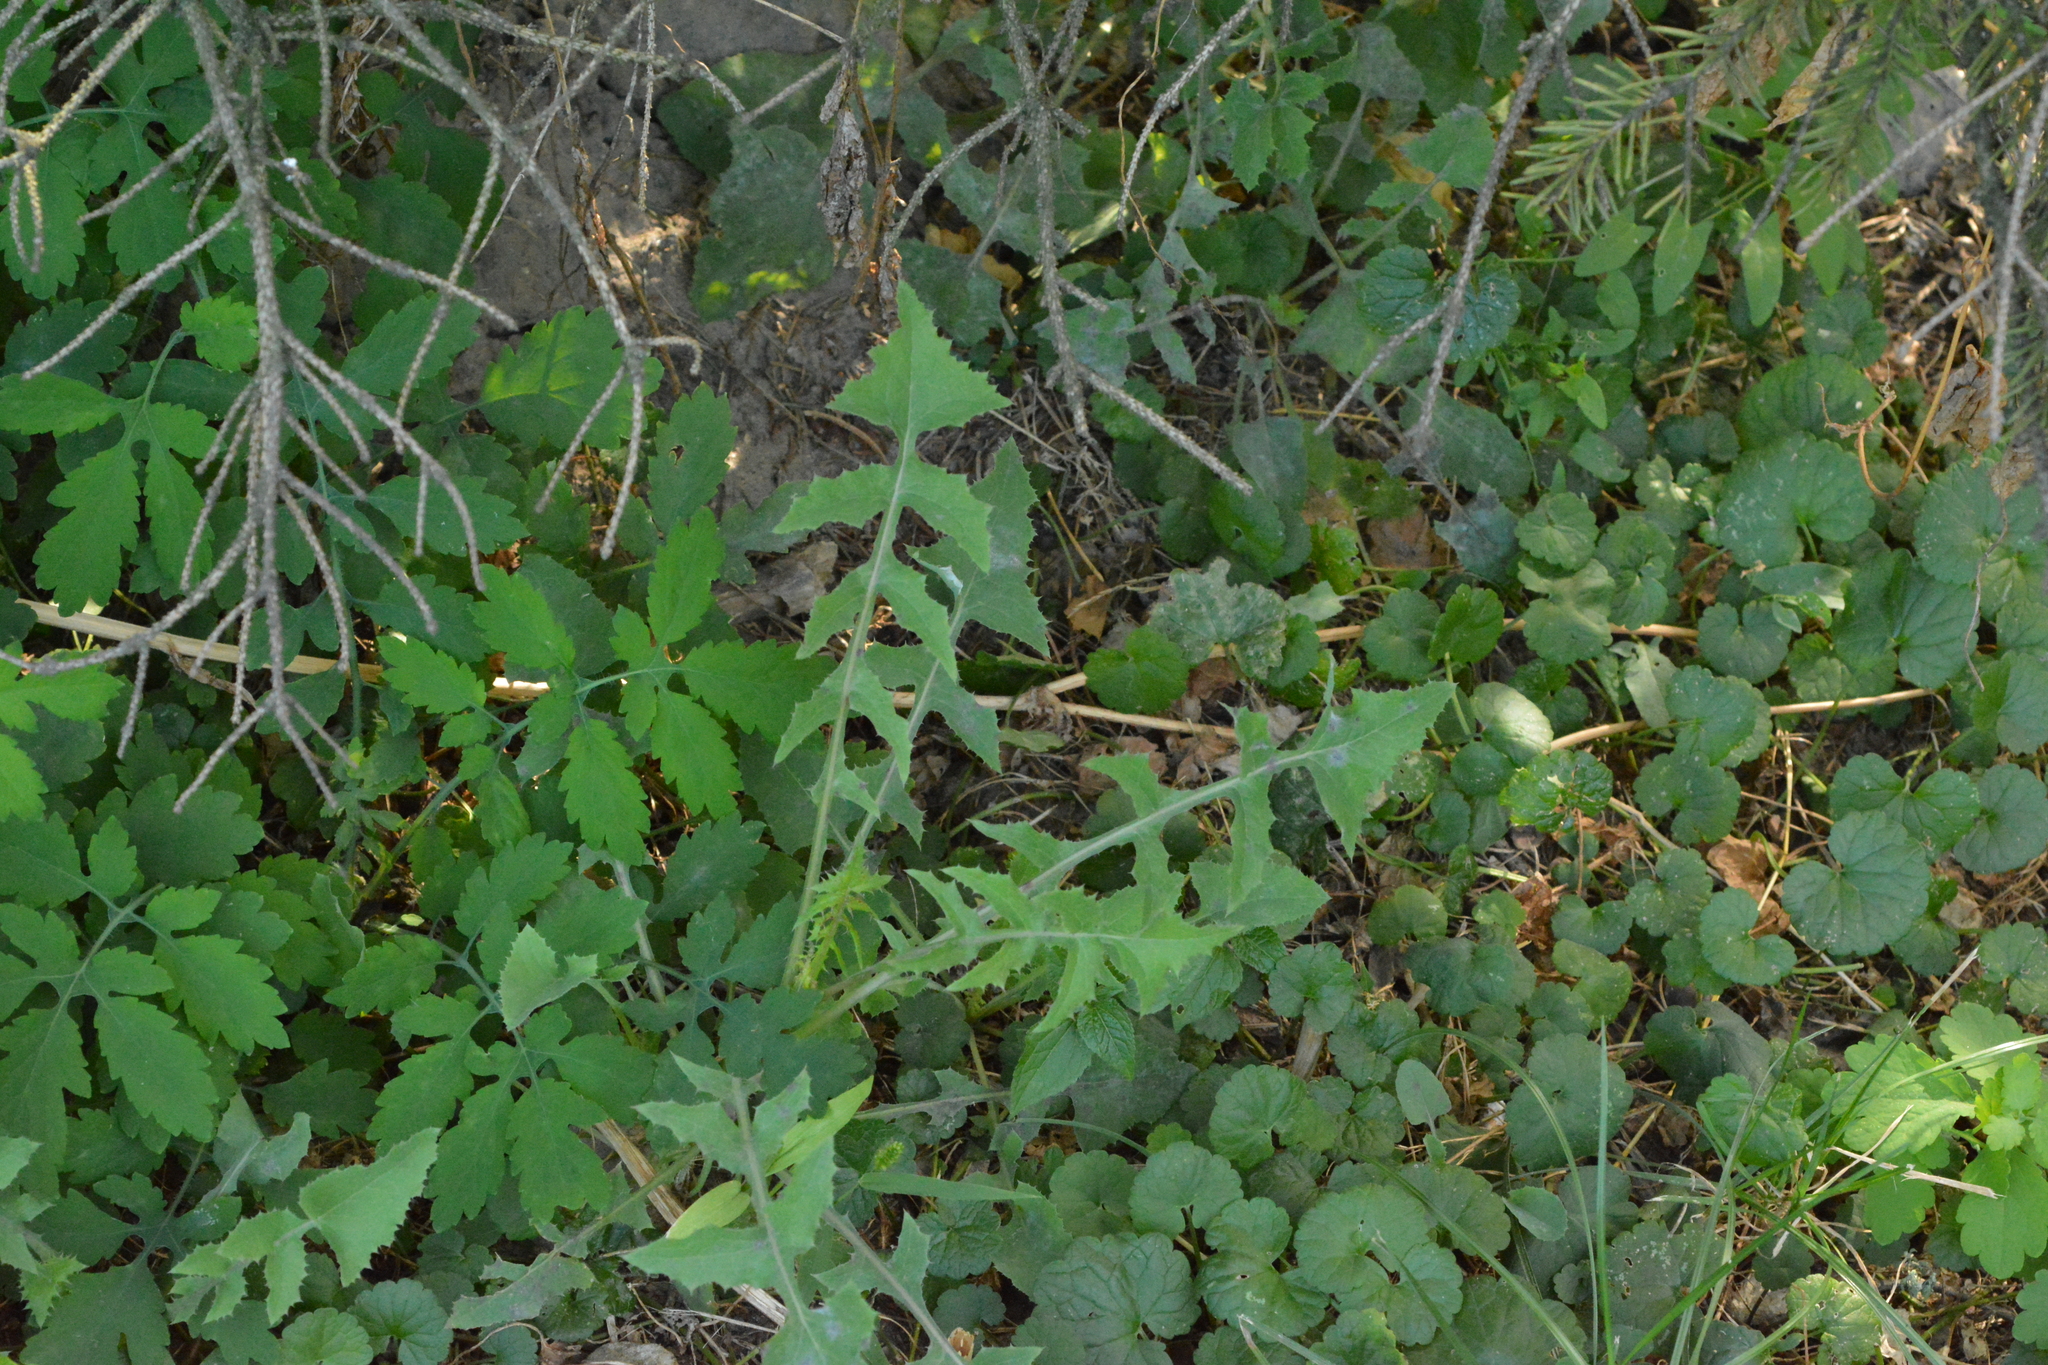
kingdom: Plantae
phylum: Tracheophyta
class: Magnoliopsida
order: Asterales
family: Asteraceae
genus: Sonchus
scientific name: Sonchus oleraceus
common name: Common sowthistle
